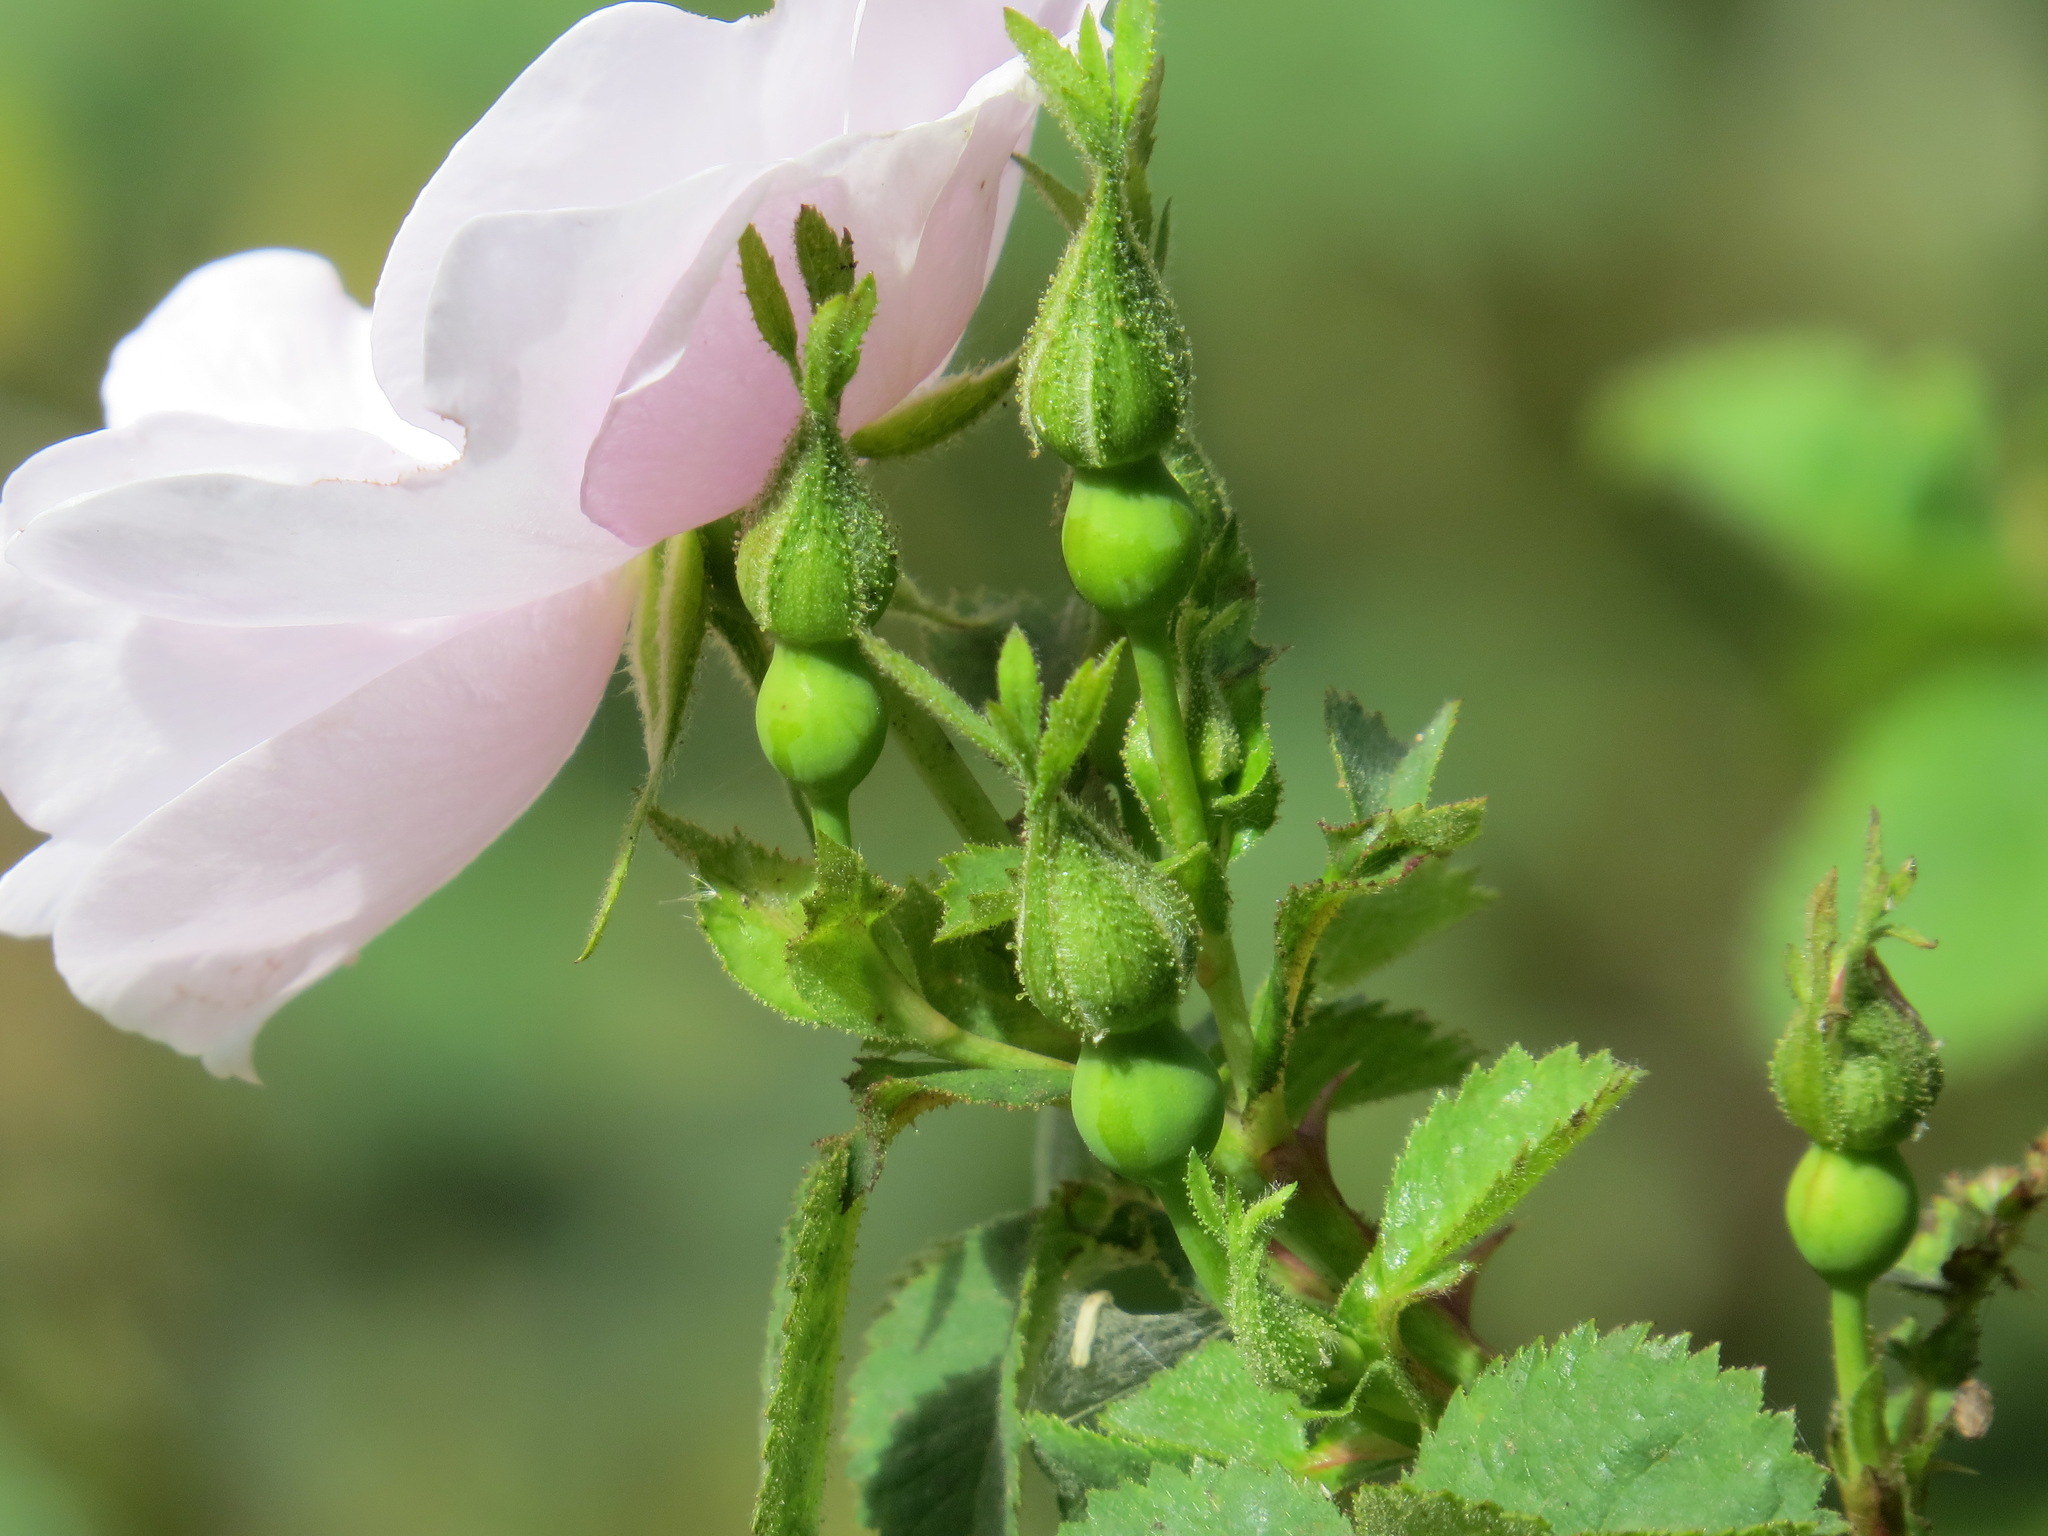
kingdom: Plantae
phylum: Tracheophyta
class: Magnoliopsida
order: Rosales
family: Rosaceae
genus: Rosa
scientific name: Rosa californica
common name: California rose
